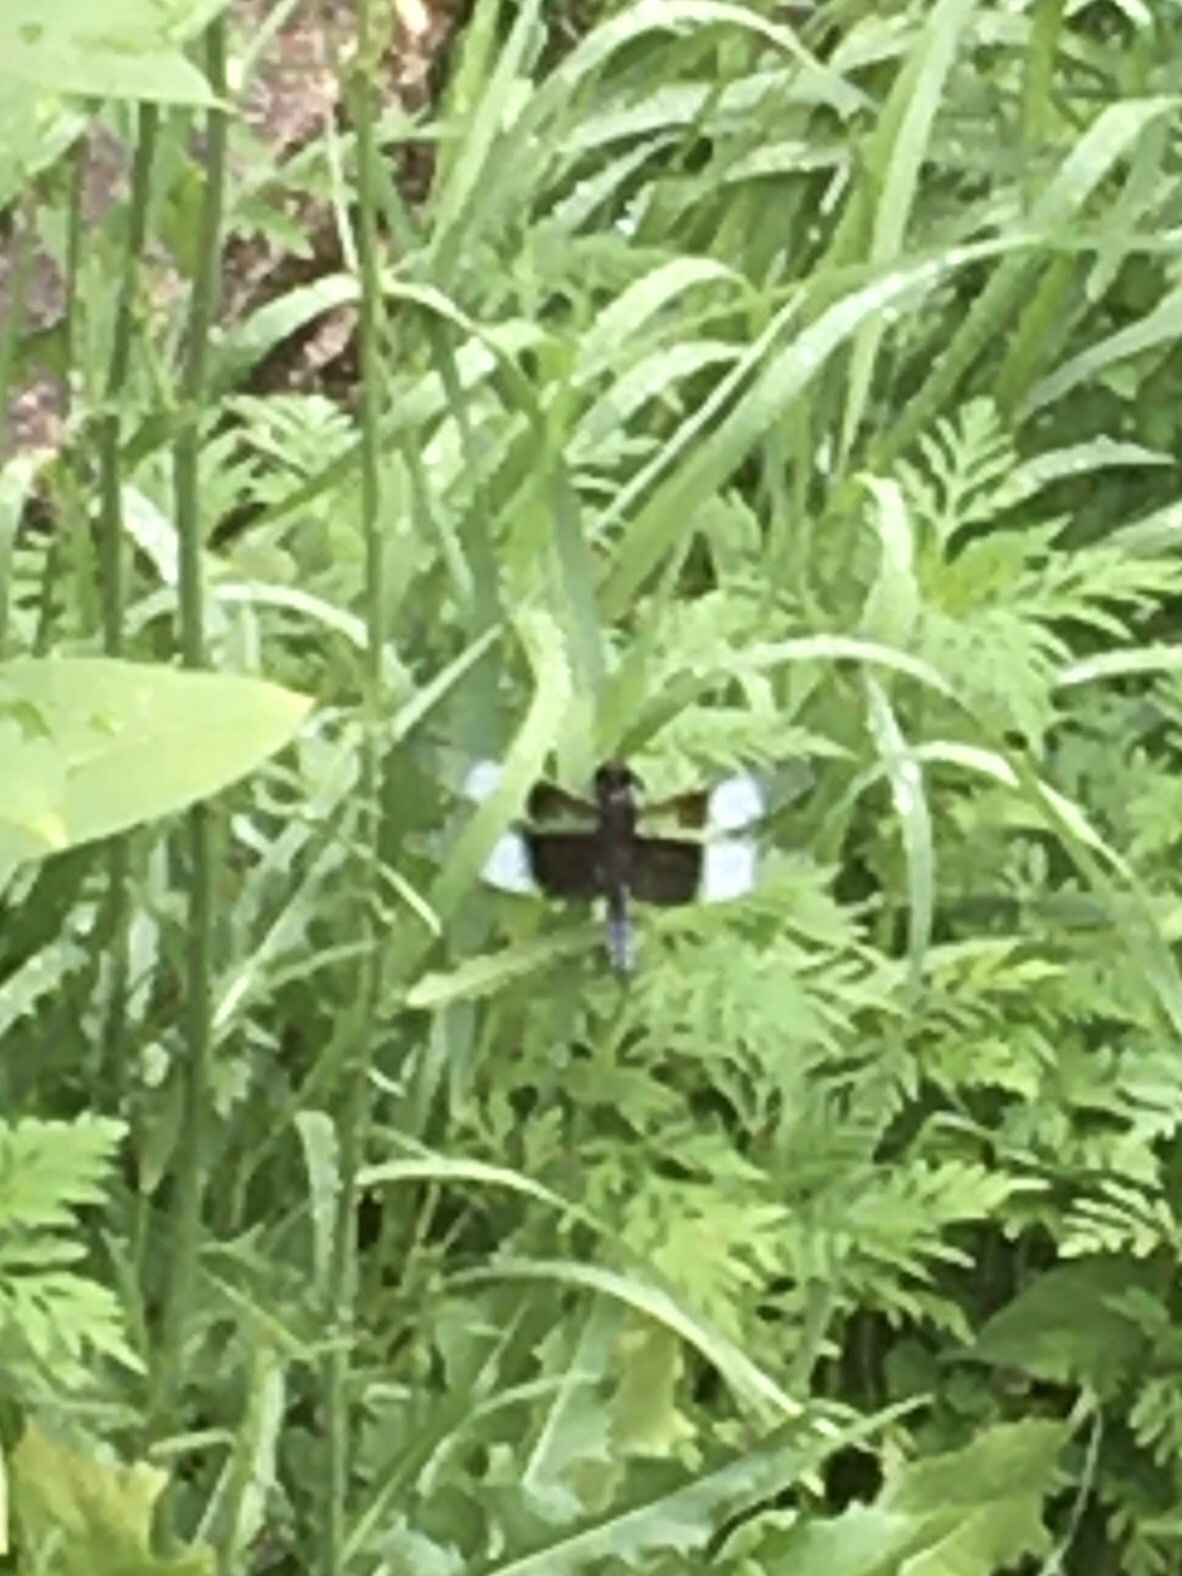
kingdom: Animalia
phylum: Arthropoda
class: Insecta
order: Odonata
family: Libellulidae
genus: Libellula
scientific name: Libellula luctuosa
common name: Widow skimmer
